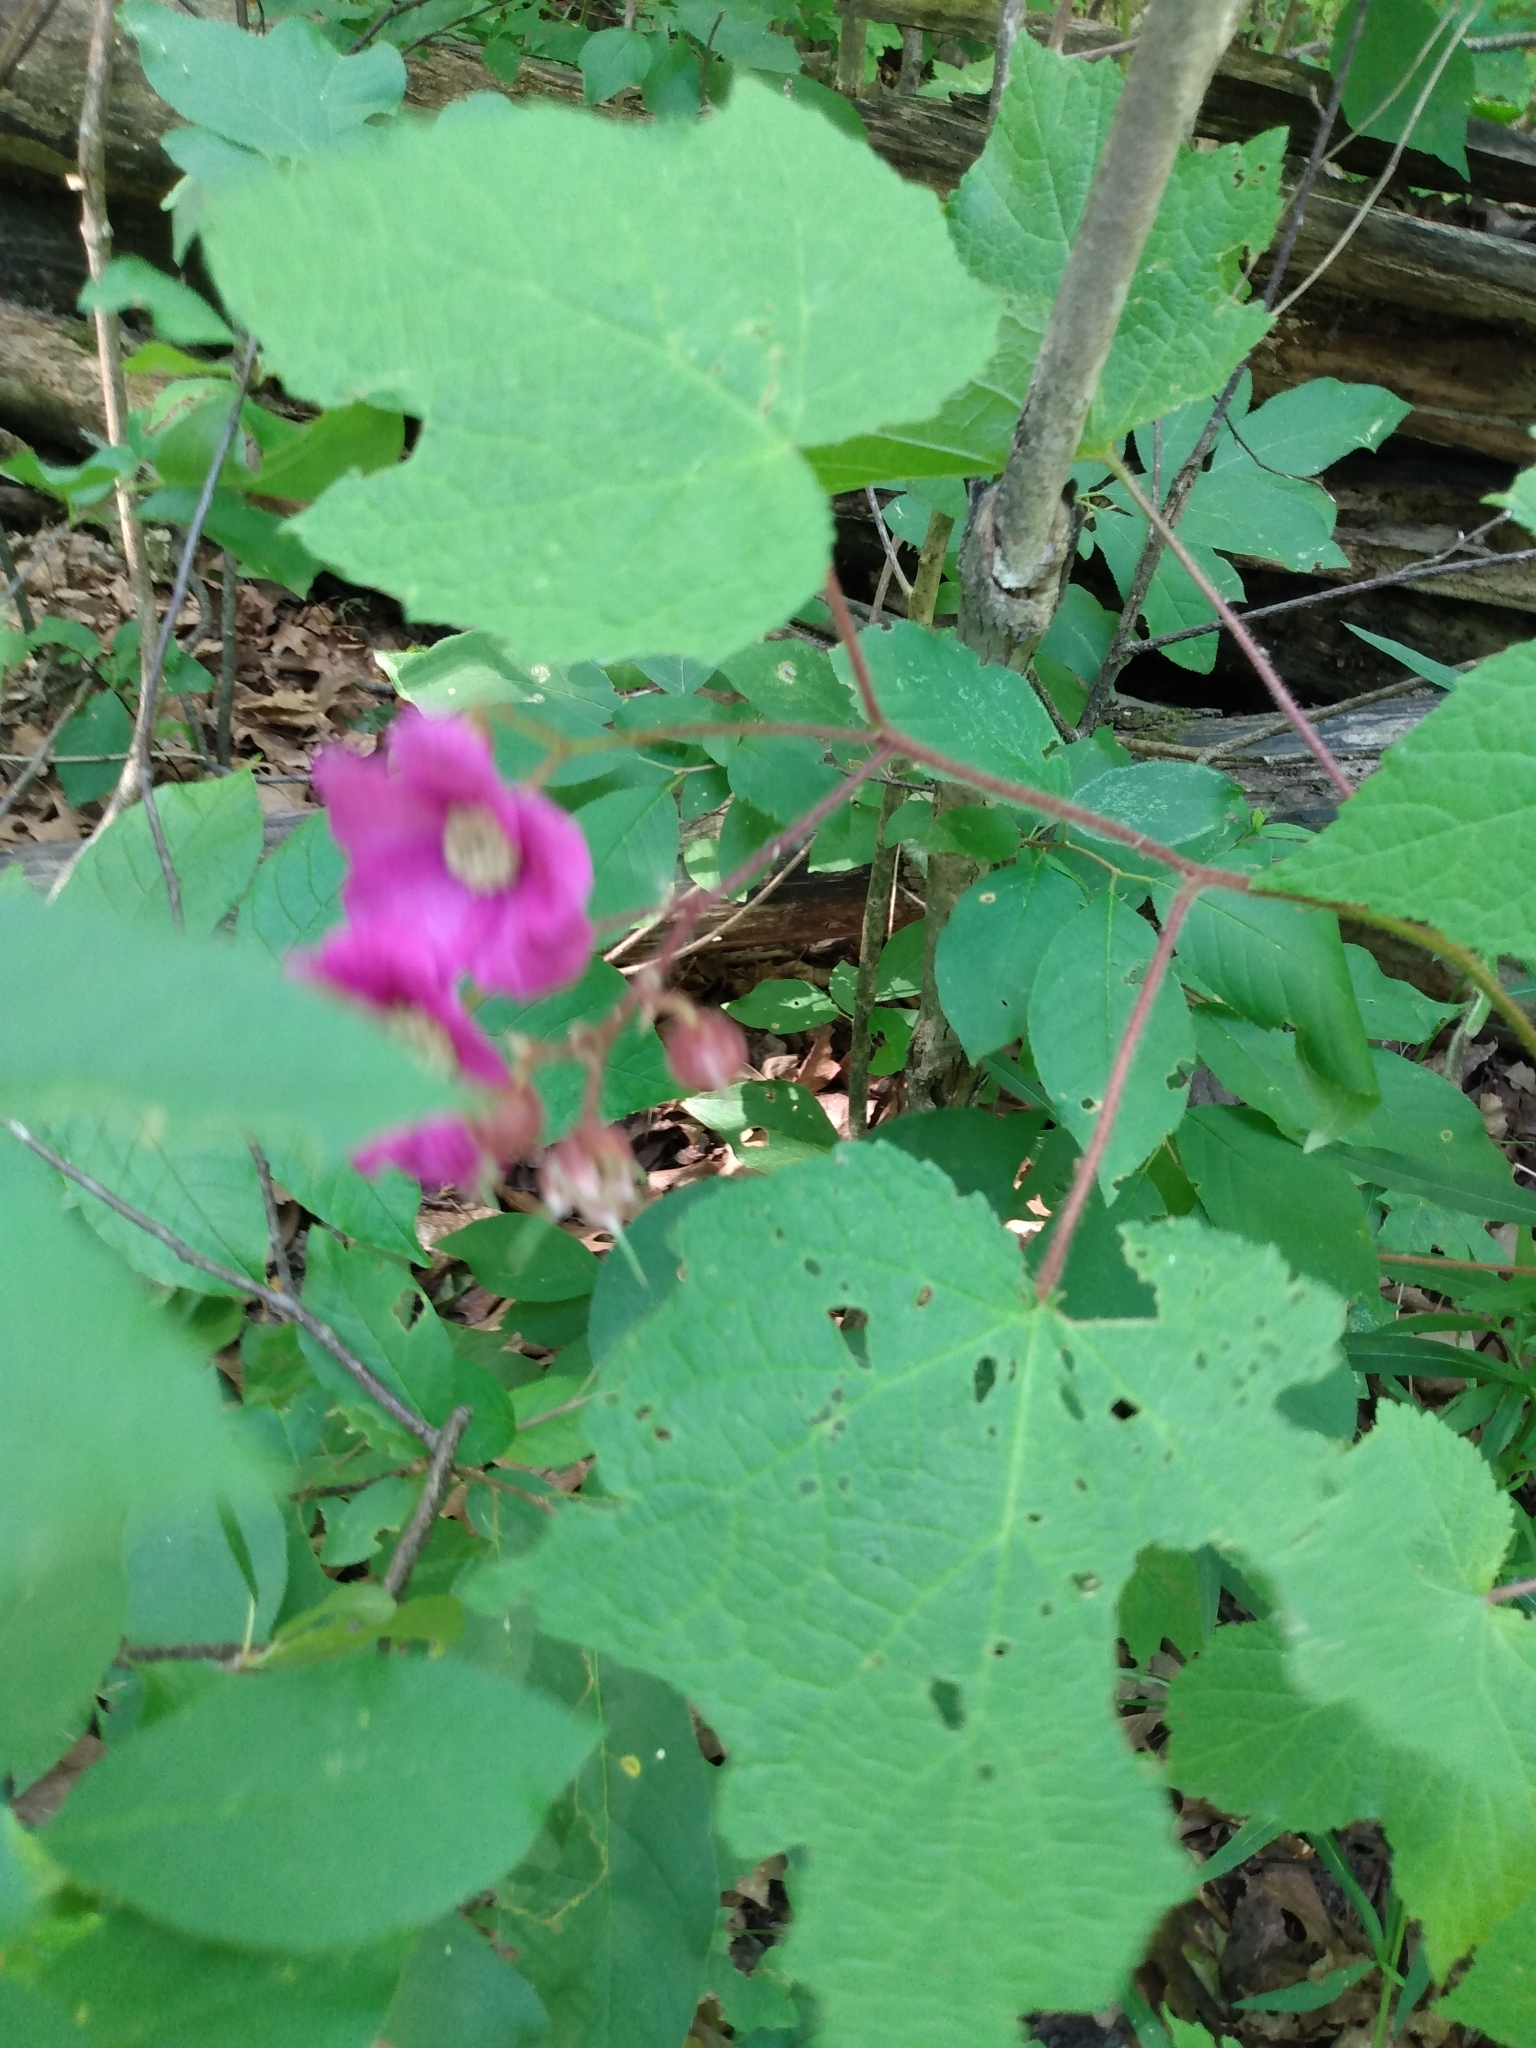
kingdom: Plantae
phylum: Tracheophyta
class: Magnoliopsida
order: Rosales
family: Rosaceae
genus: Rubus
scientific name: Rubus odoratus
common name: Purple-flowered raspberry
